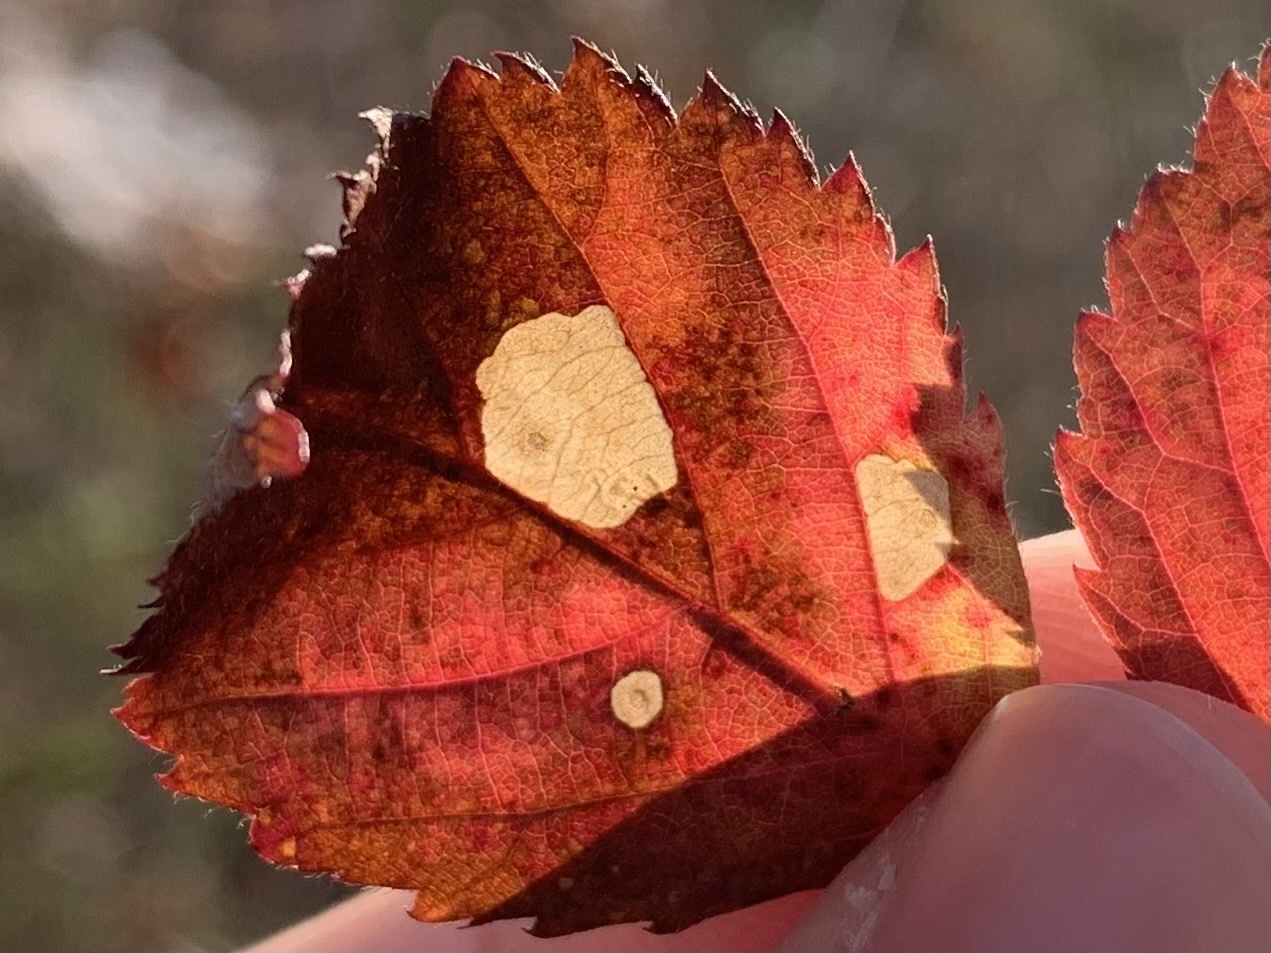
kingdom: Animalia
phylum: Arthropoda
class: Insecta
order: Lepidoptera
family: Coleophoridae
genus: Coleophora
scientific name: Coleophora cretaticostella
